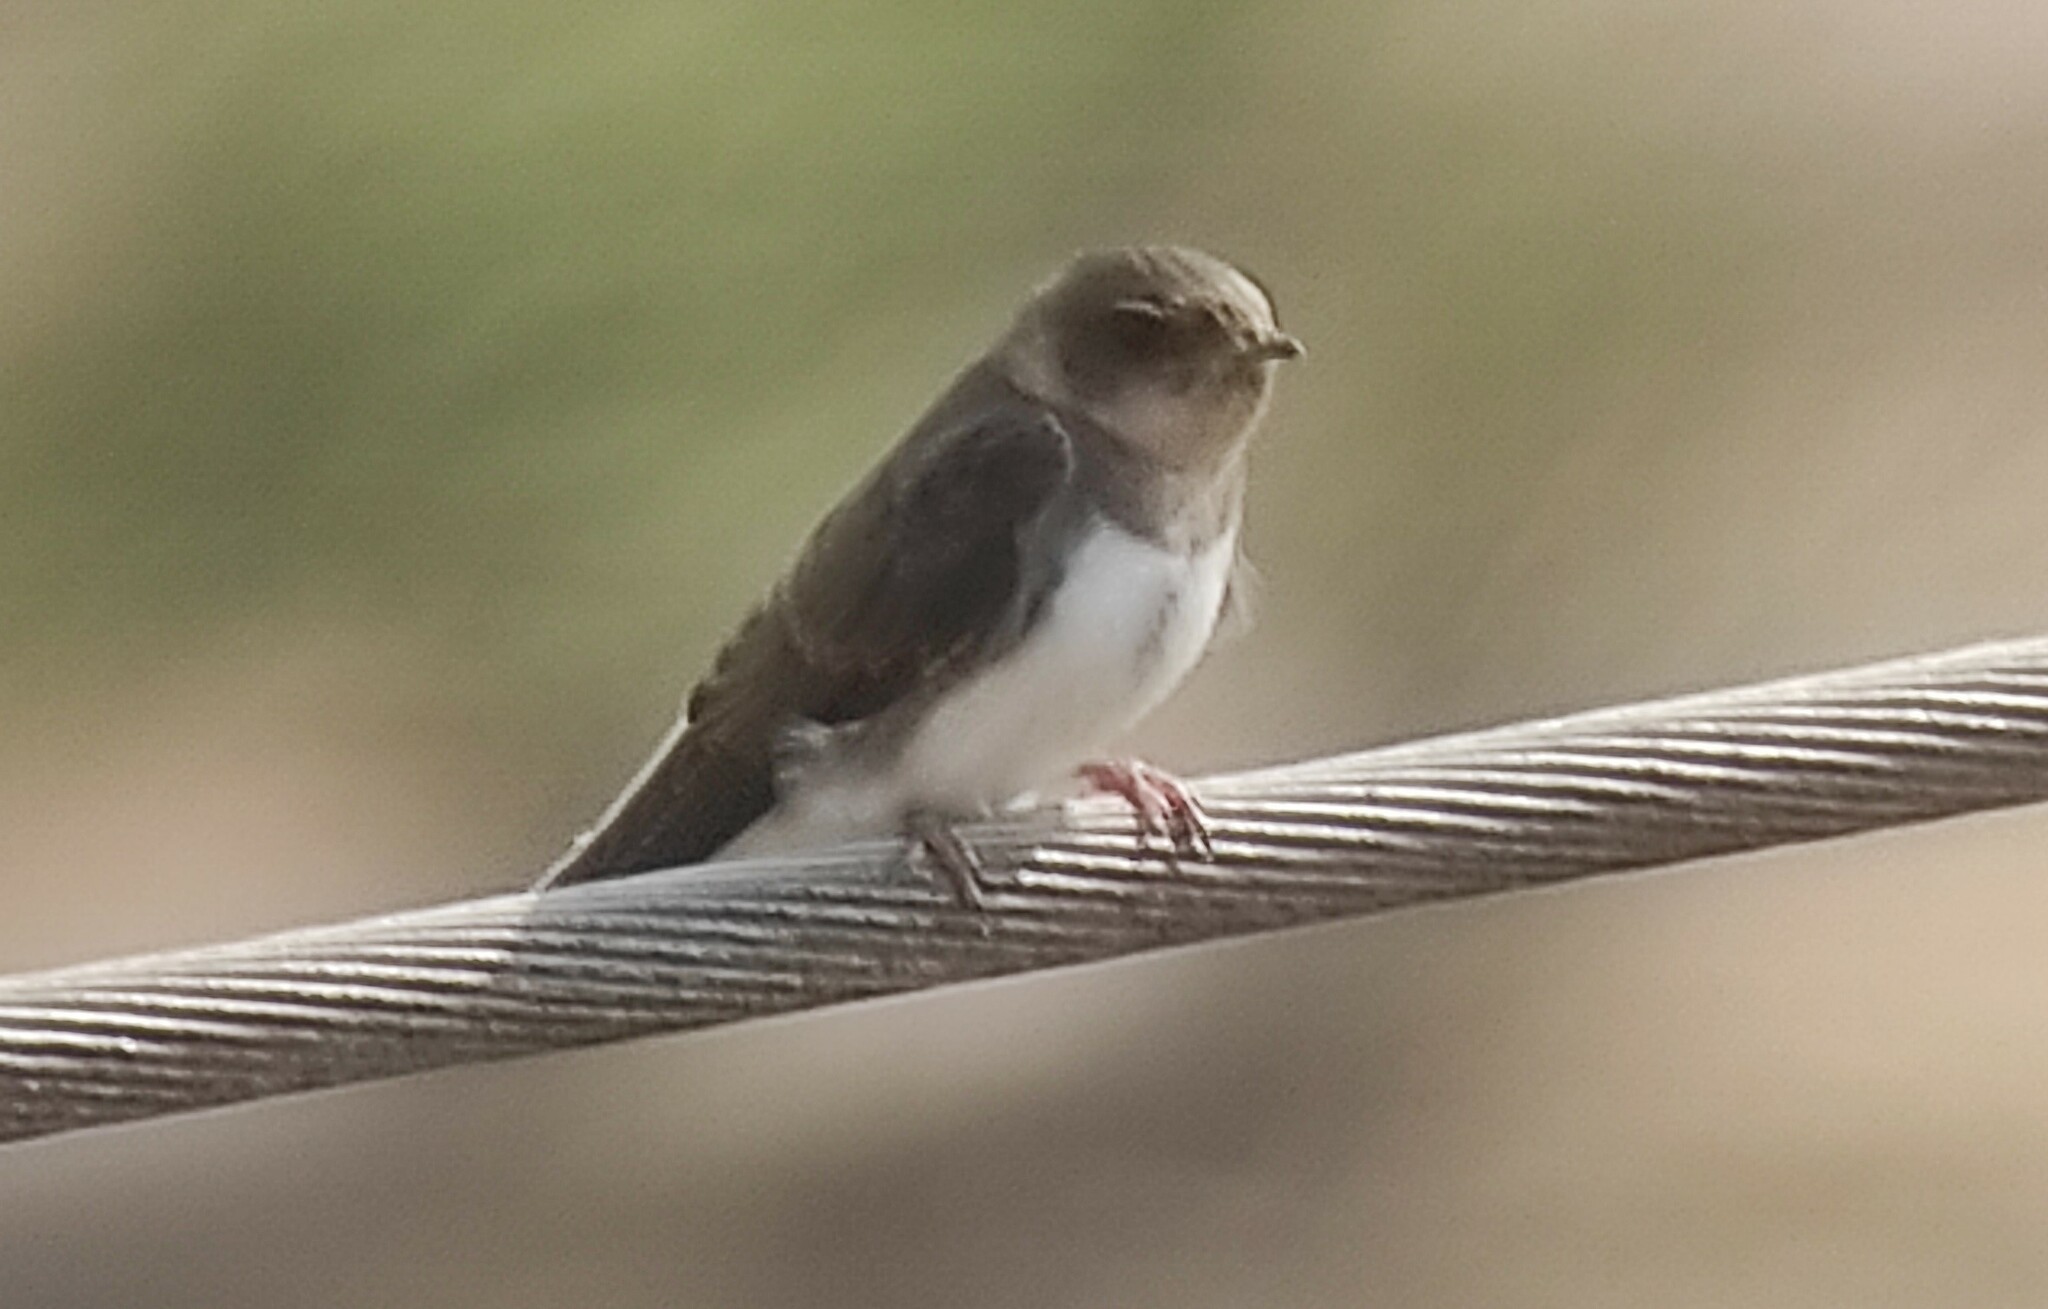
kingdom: Animalia
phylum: Chordata
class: Aves
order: Passeriformes
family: Hirundinidae
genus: Riparia
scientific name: Riparia riparia
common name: Sand martin
